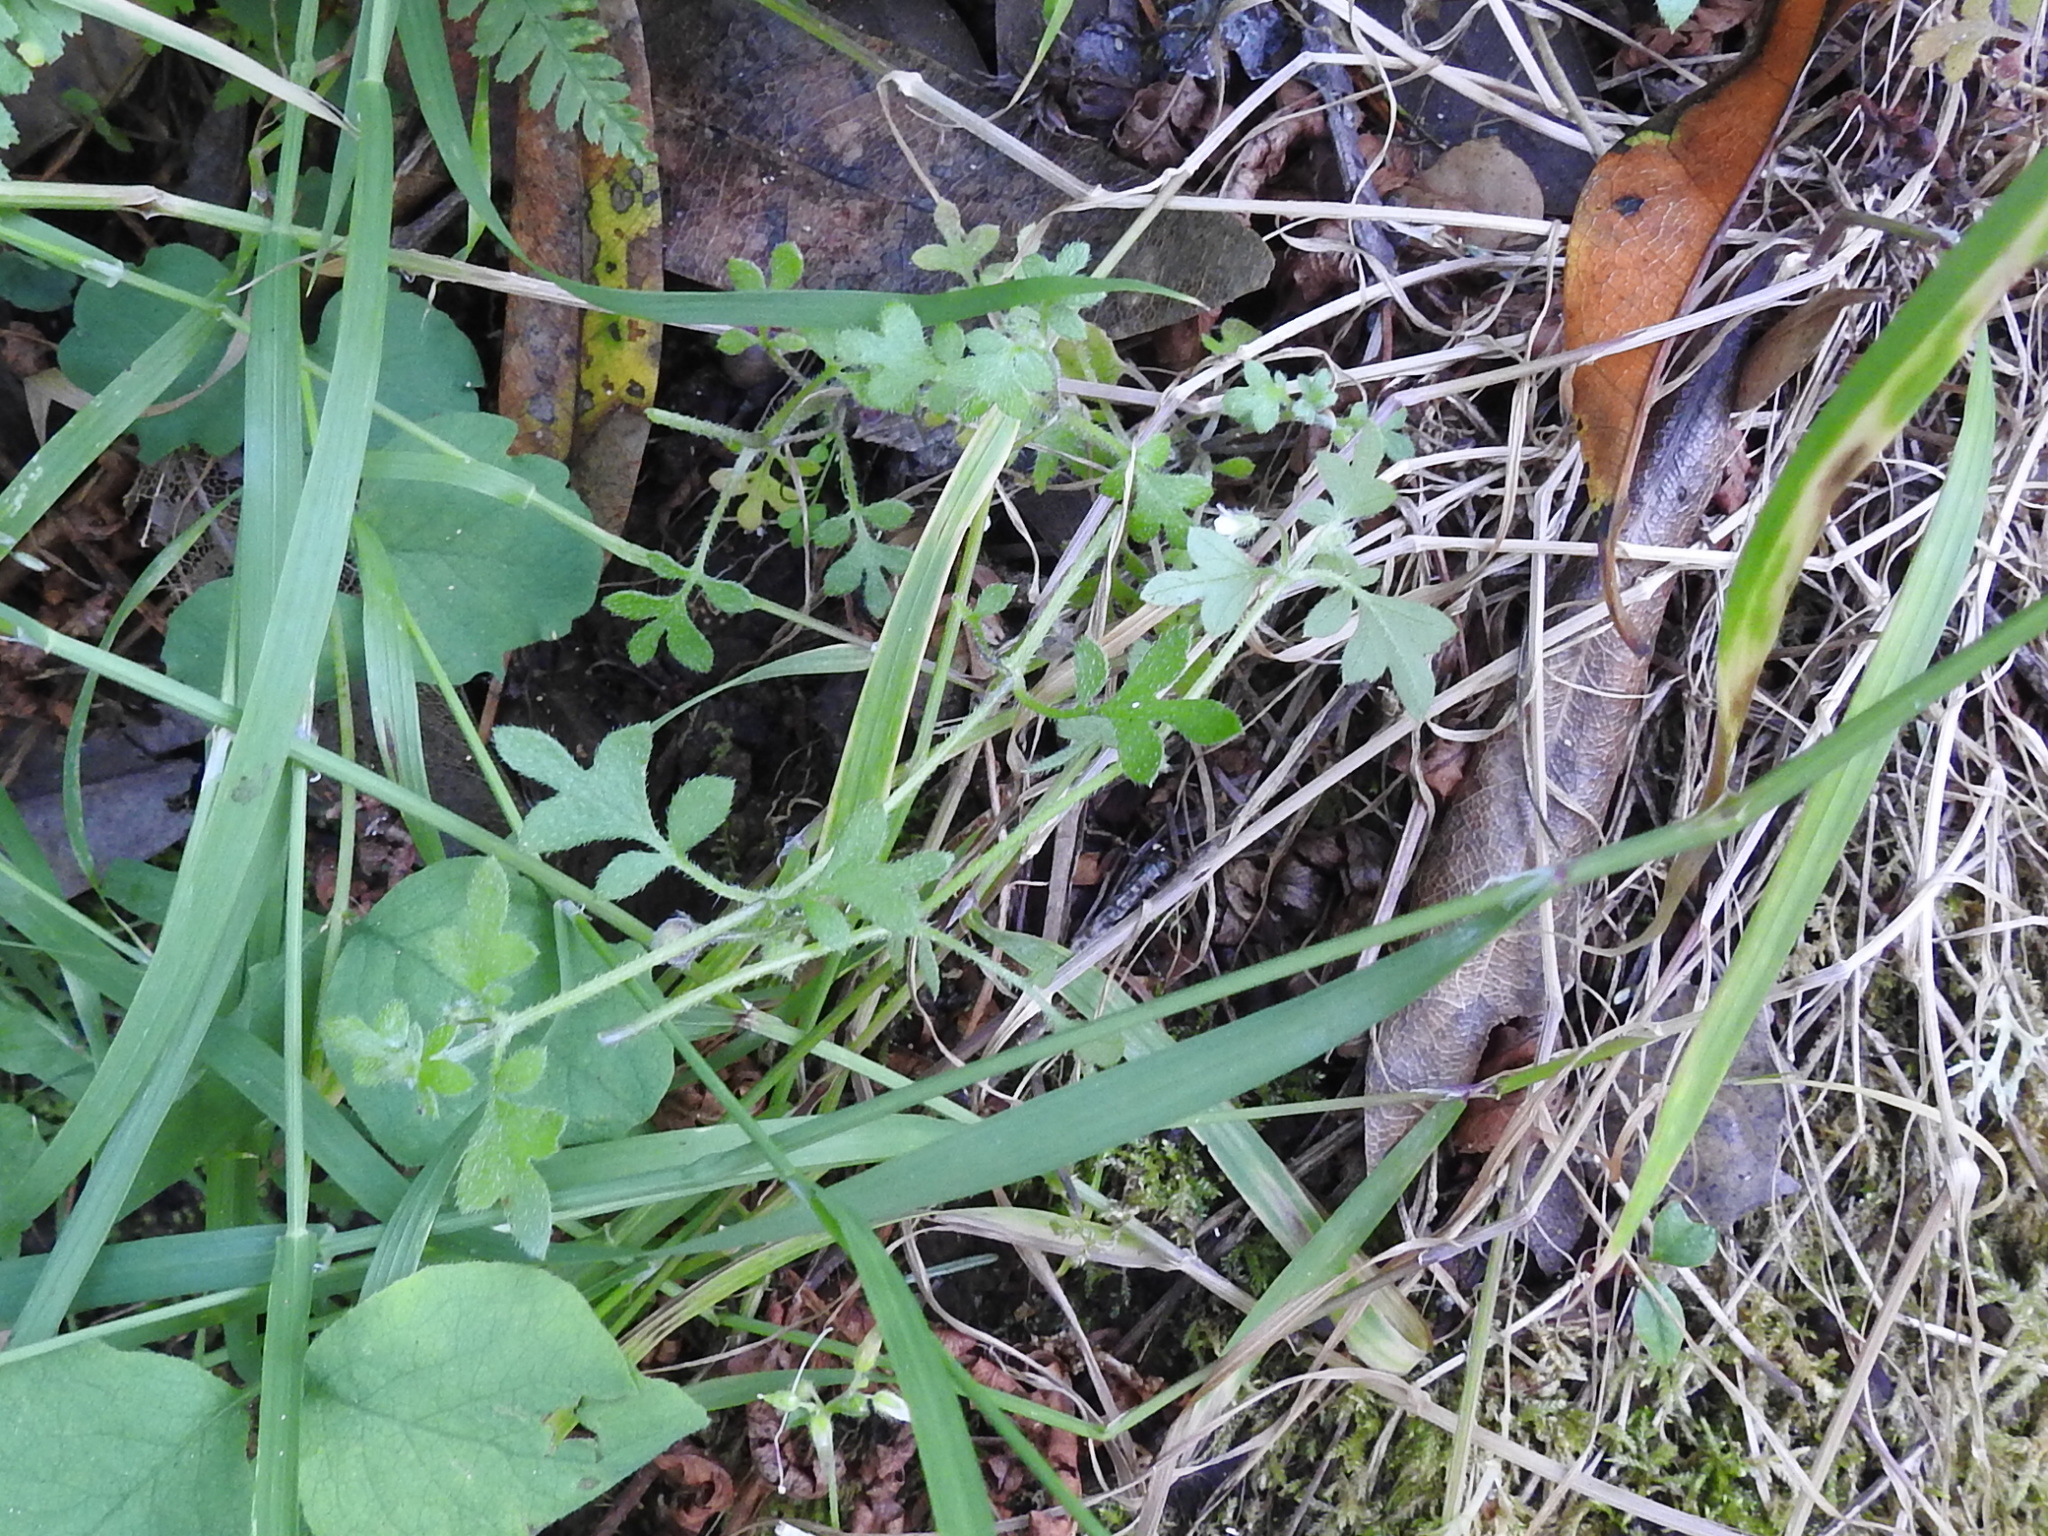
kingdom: Plantae
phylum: Tracheophyta
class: Magnoliopsida
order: Boraginales
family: Hydrophyllaceae
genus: Nemophila
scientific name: Nemophila parviflora
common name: Small-flowered baby-blue-eyes
